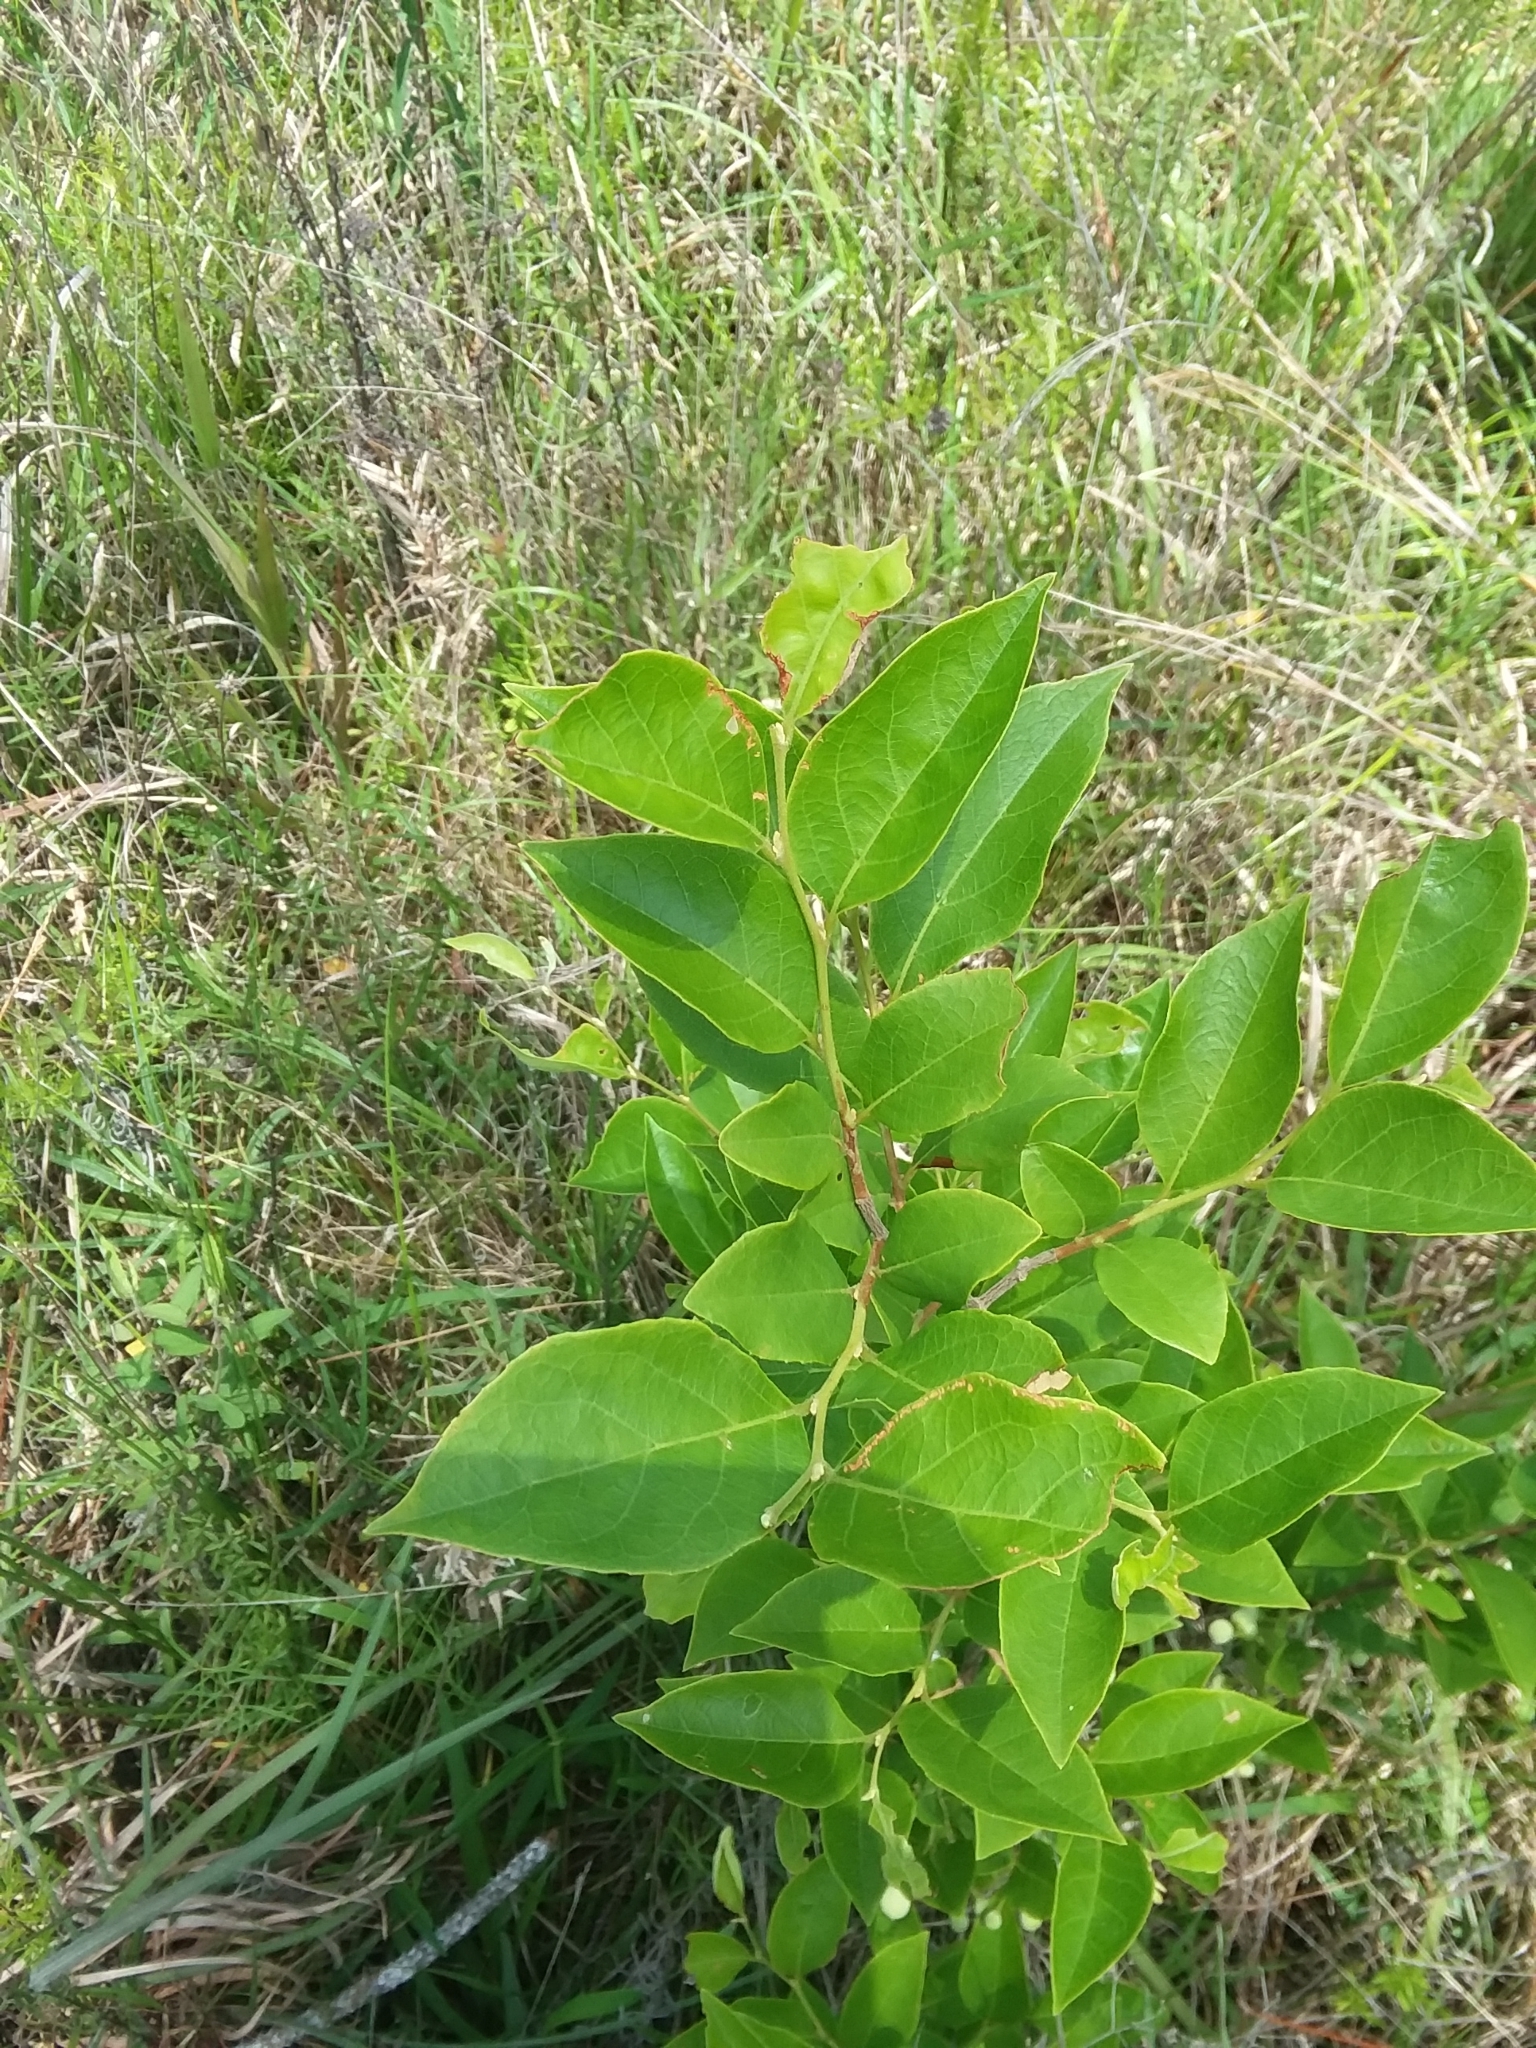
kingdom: Plantae
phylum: Tracheophyta
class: Magnoliopsida
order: Ericales
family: Styracaceae
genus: Styrax
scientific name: Styrax americanus
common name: American snowbell
